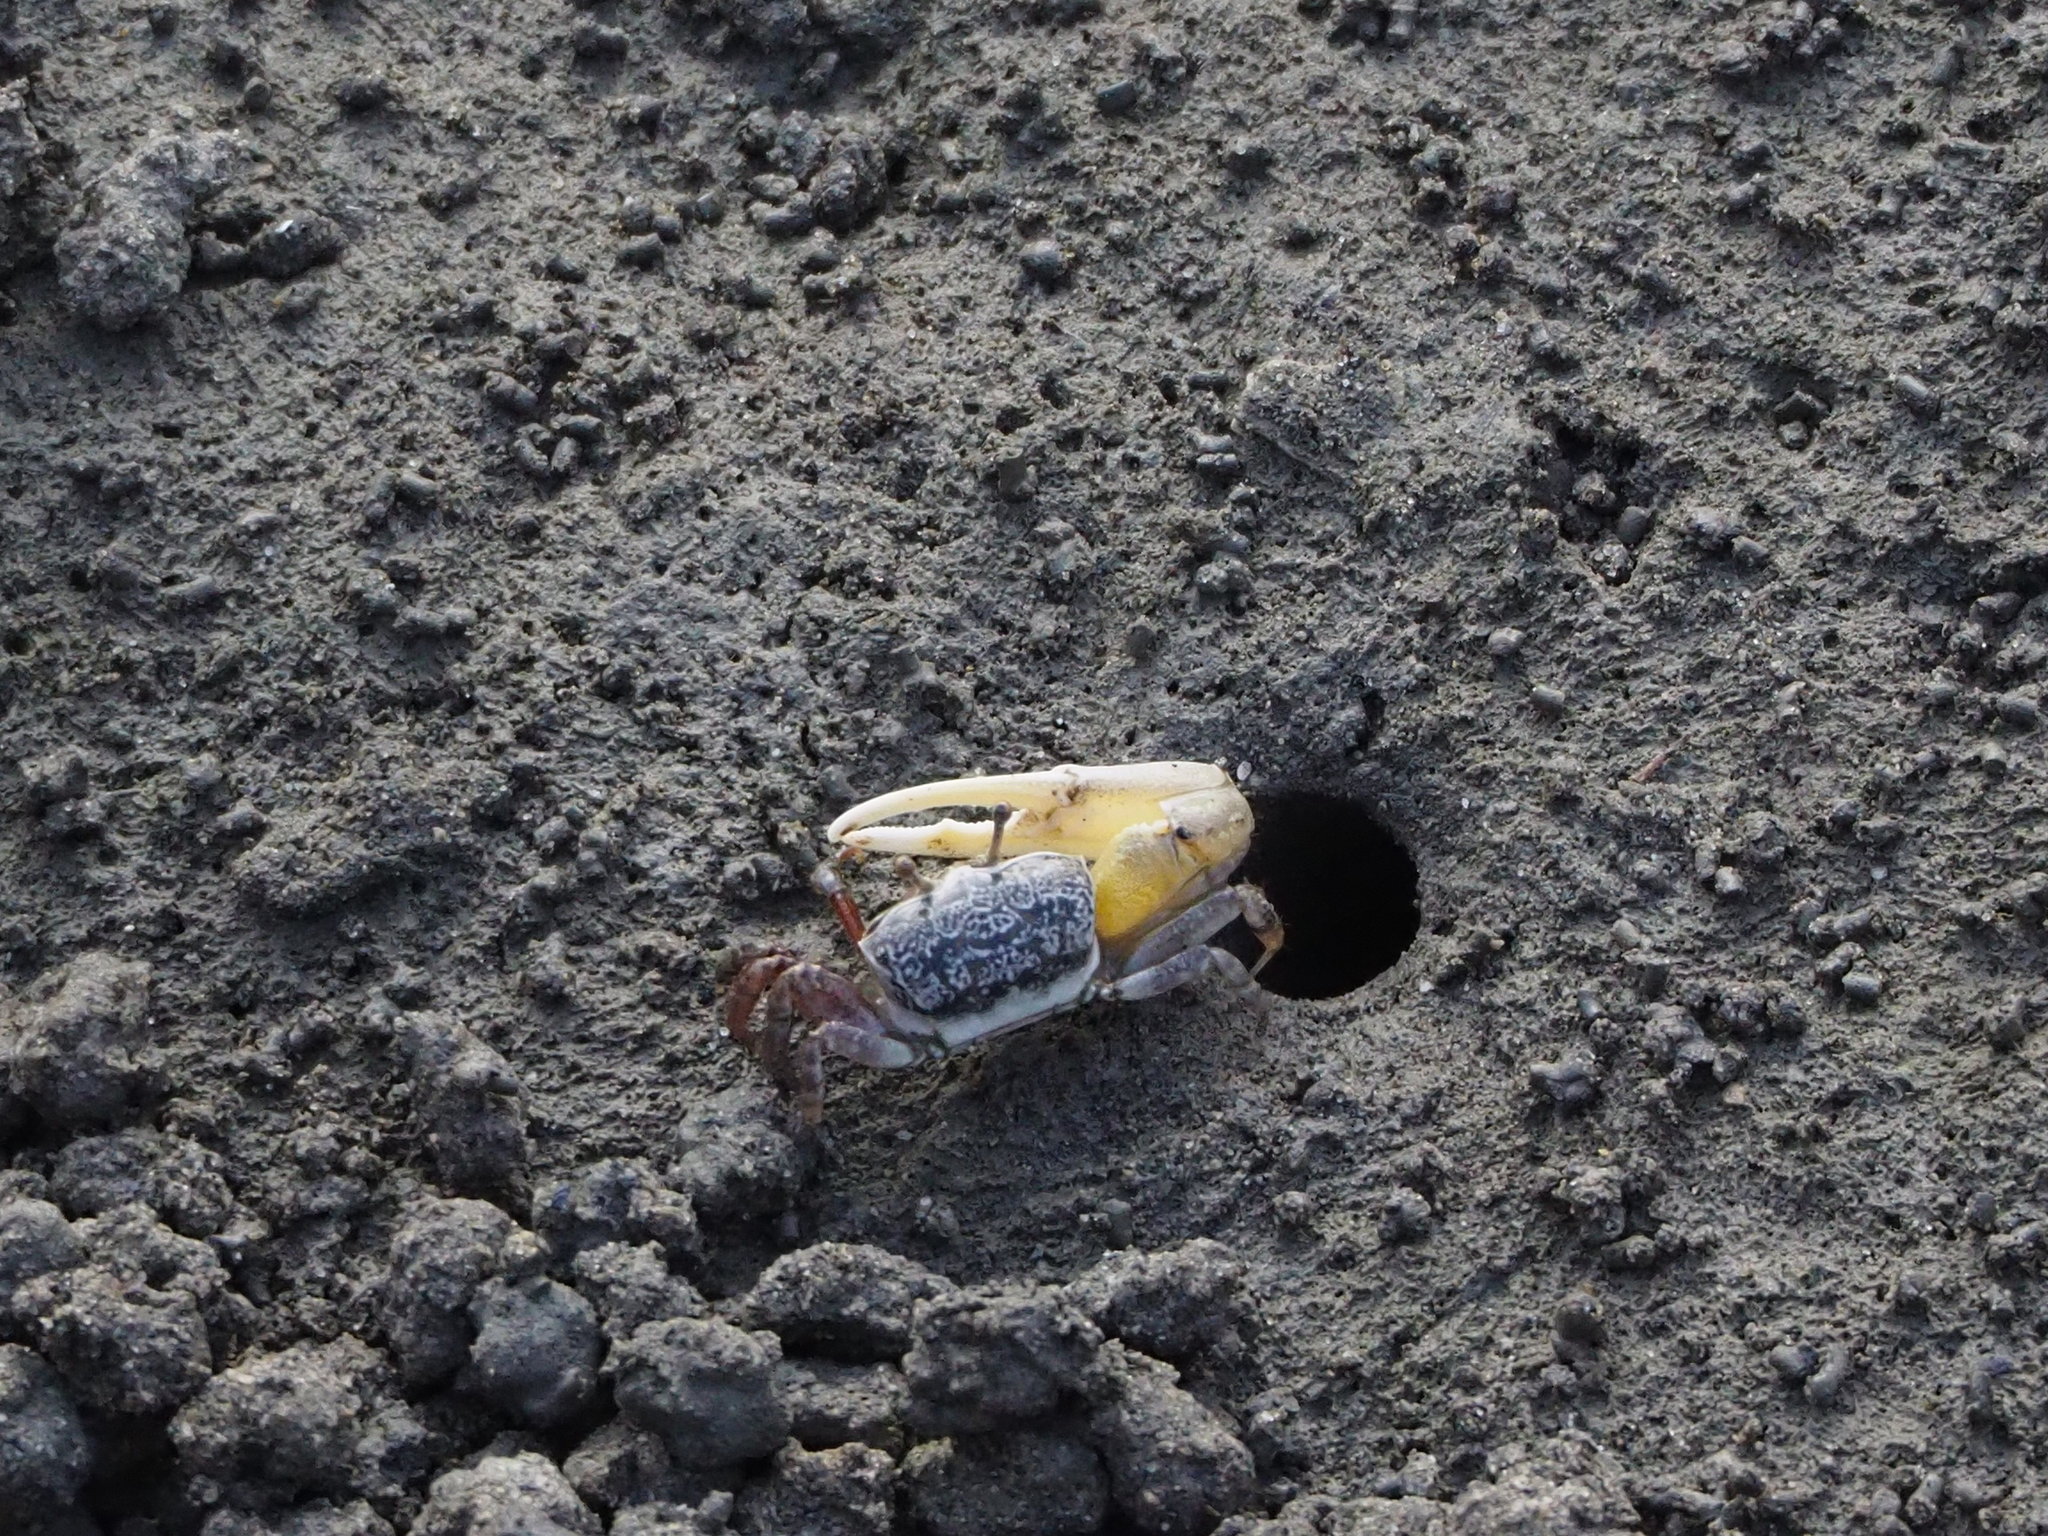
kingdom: Animalia
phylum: Arthropoda
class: Malacostraca
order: Decapoda
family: Ocypodidae
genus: Austruca
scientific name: Austruca lactea
